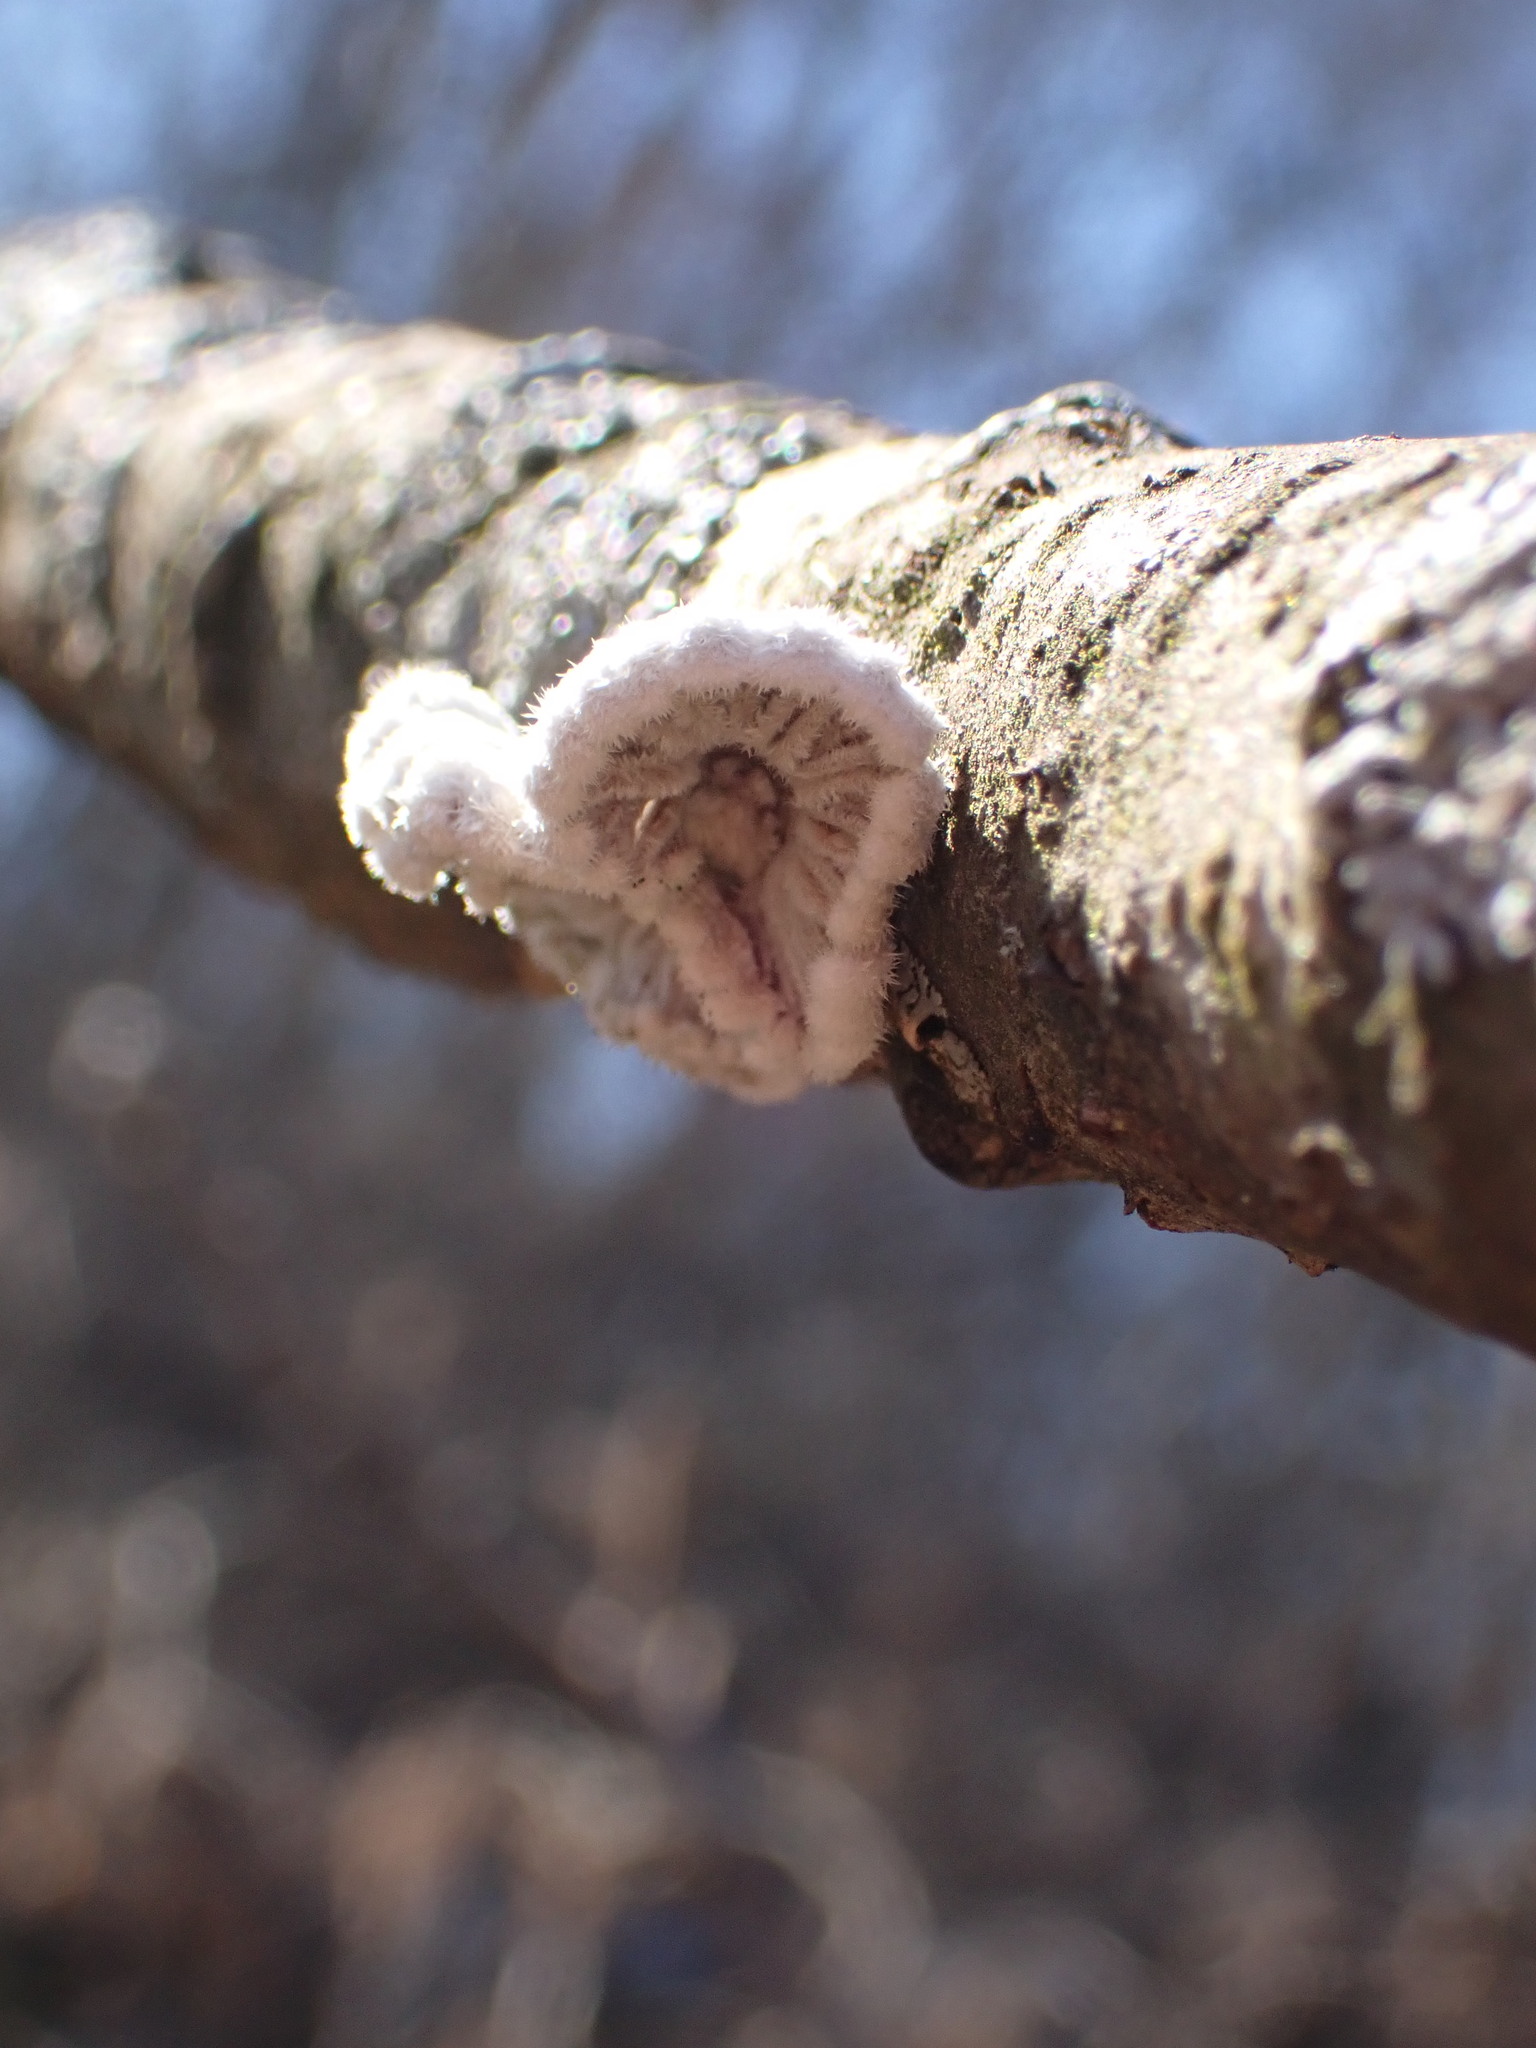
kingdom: Fungi
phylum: Basidiomycota
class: Agaricomycetes
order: Agaricales
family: Schizophyllaceae
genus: Schizophyllum
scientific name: Schizophyllum commune
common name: Common porecrust
